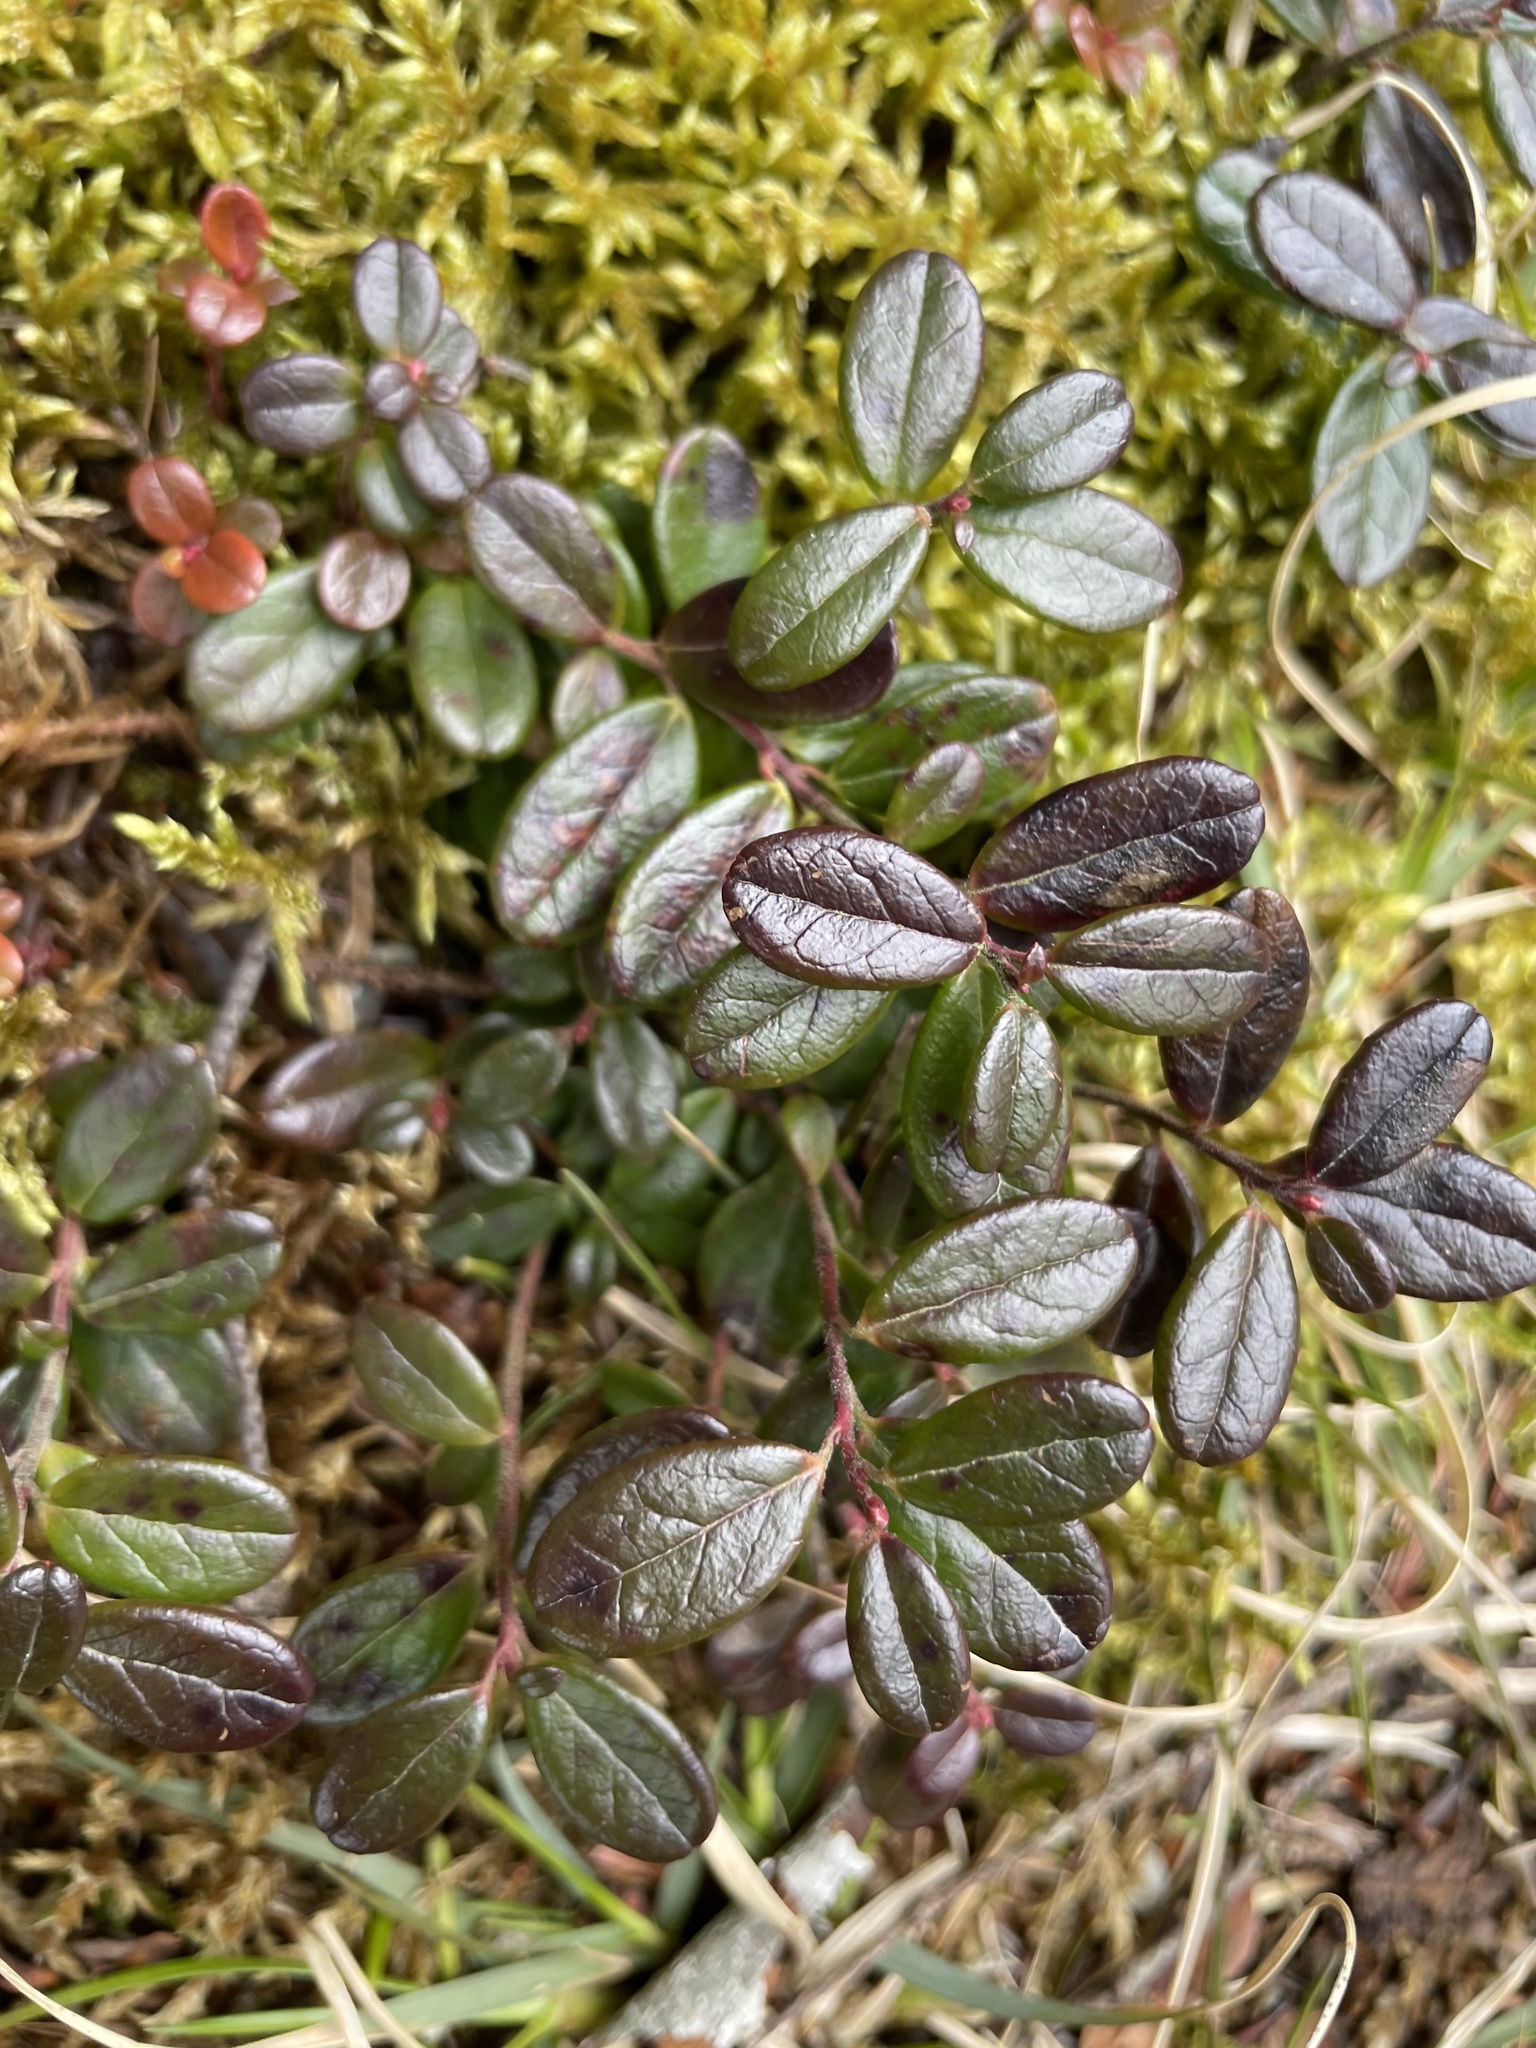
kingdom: Plantae
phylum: Tracheophyta
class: Magnoliopsida
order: Ericales
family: Ericaceae
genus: Vaccinium
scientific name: Vaccinium vitis-idaea
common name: Cowberry
